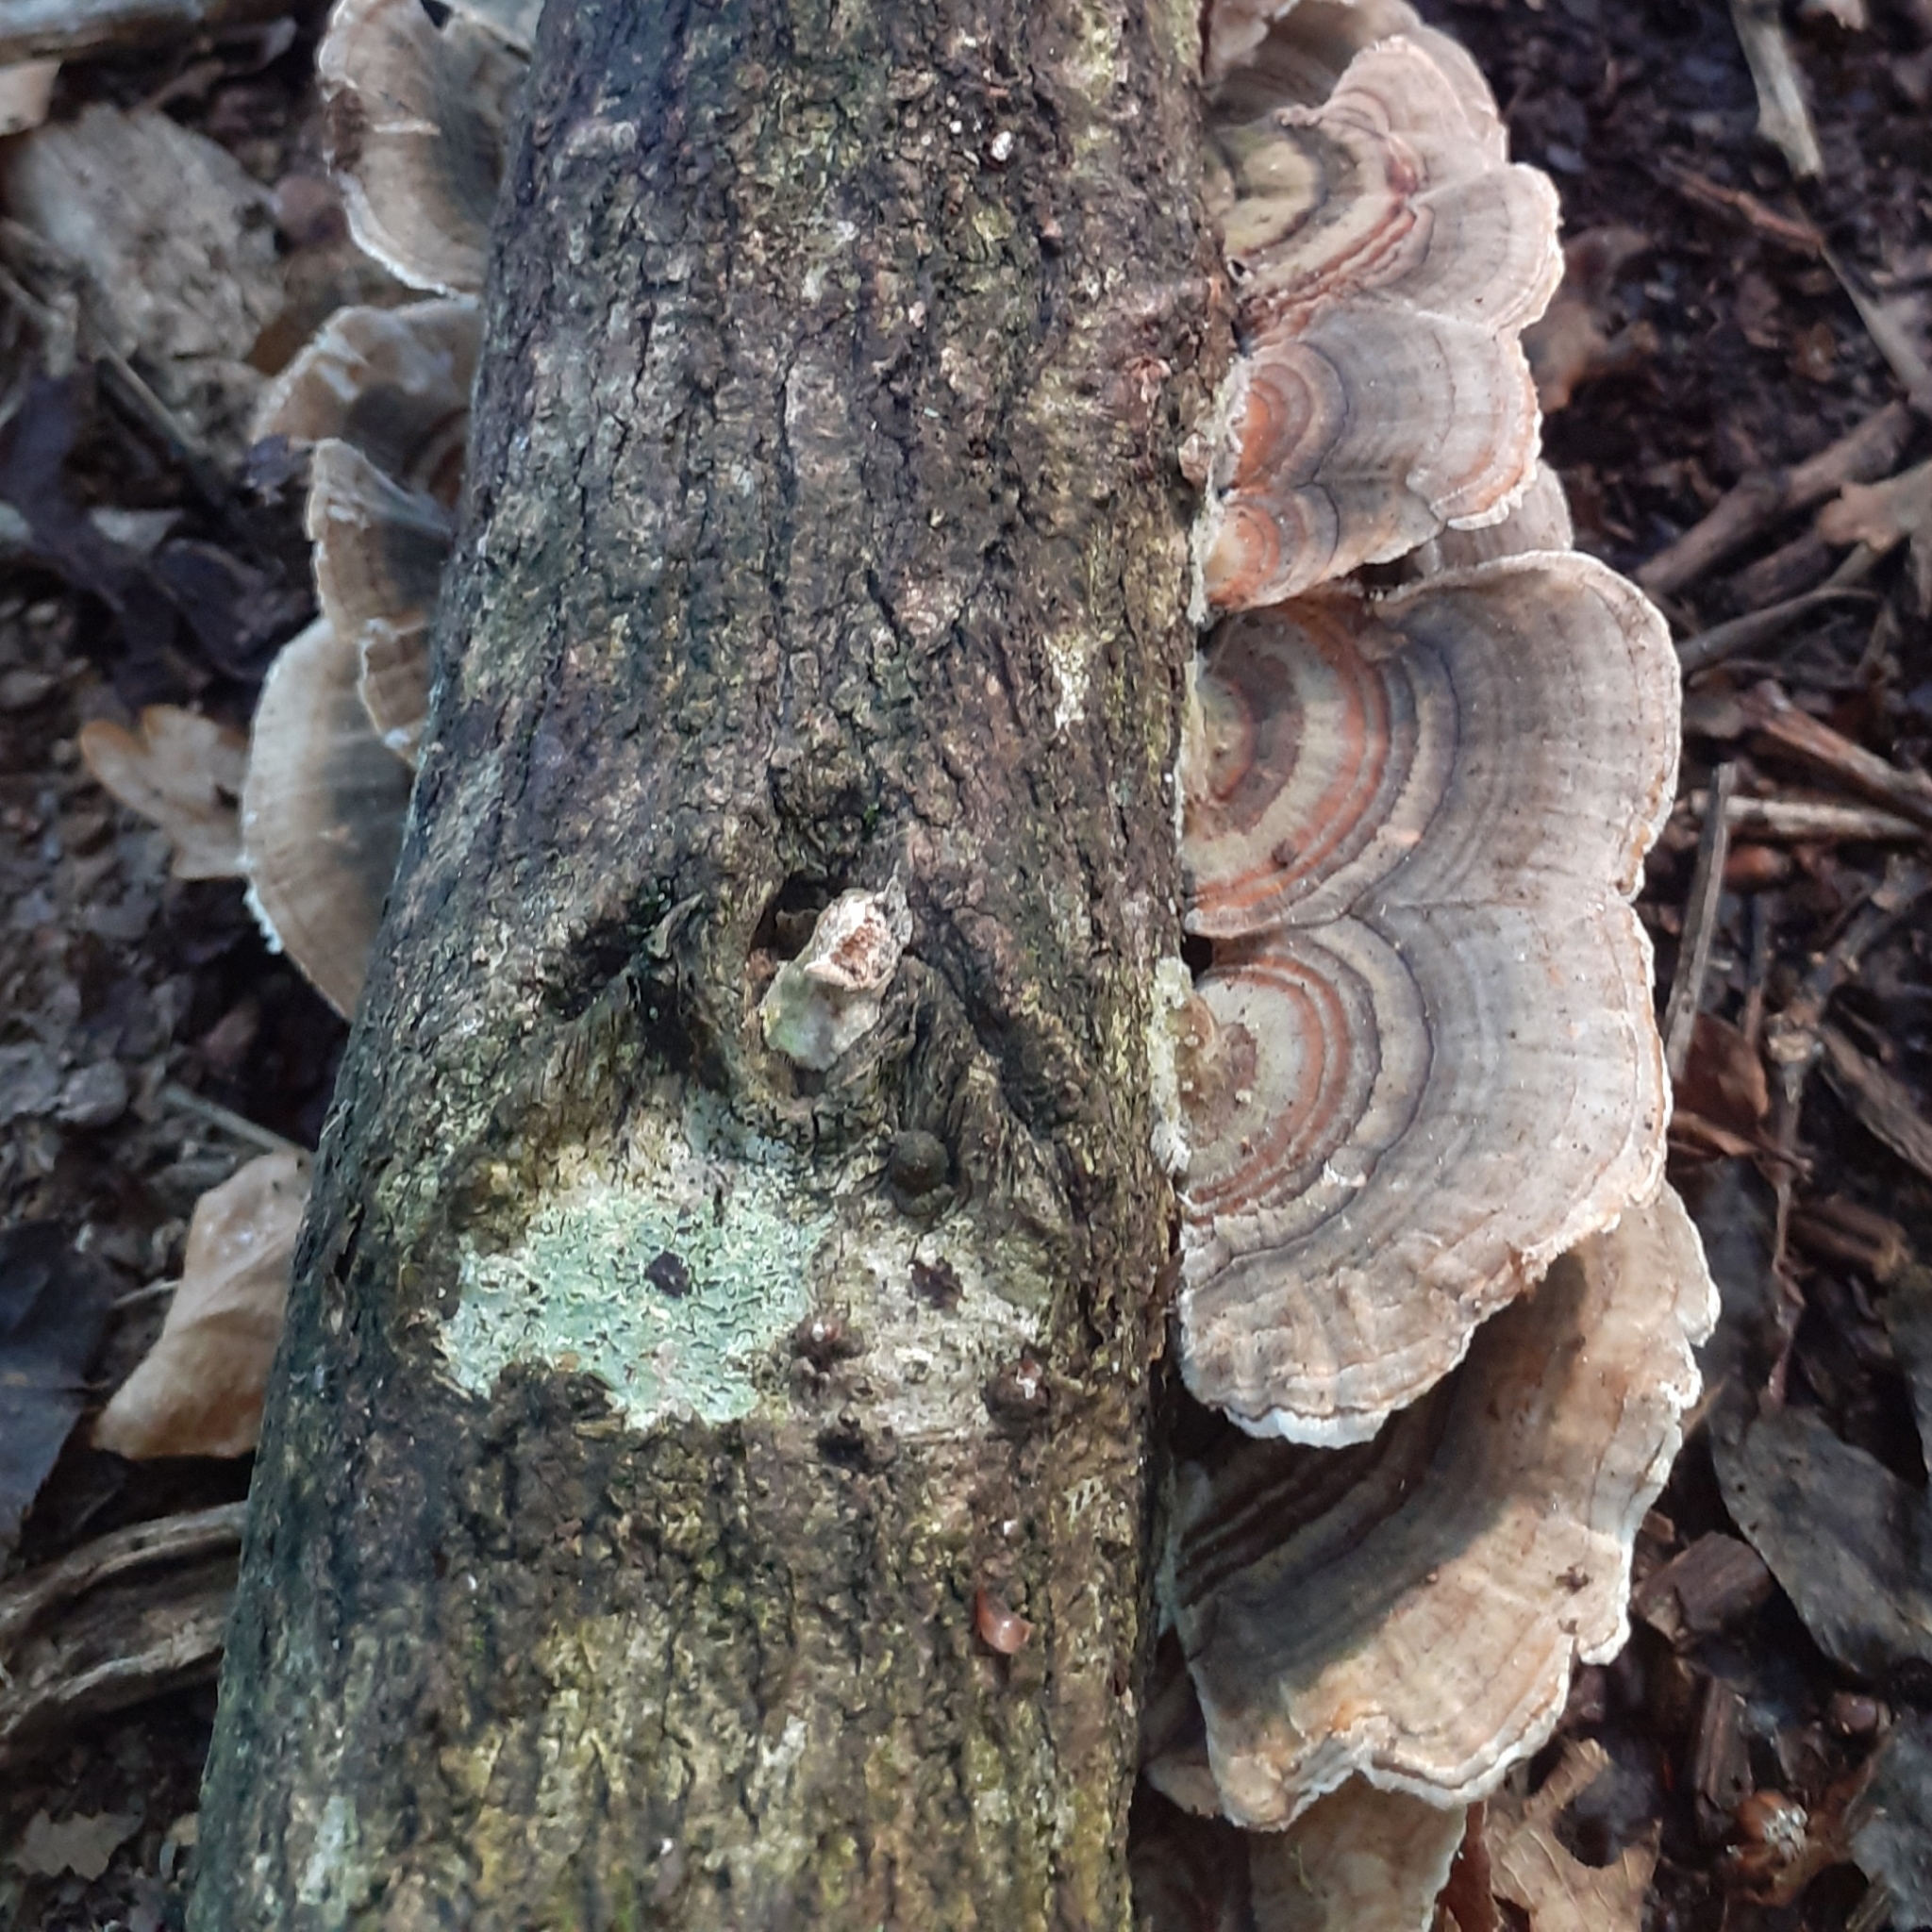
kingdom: Fungi
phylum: Basidiomycota
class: Agaricomycetes
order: Polyporales
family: Polyporaceae
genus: Trametes
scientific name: Trametes versicolor
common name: Turkeytail
